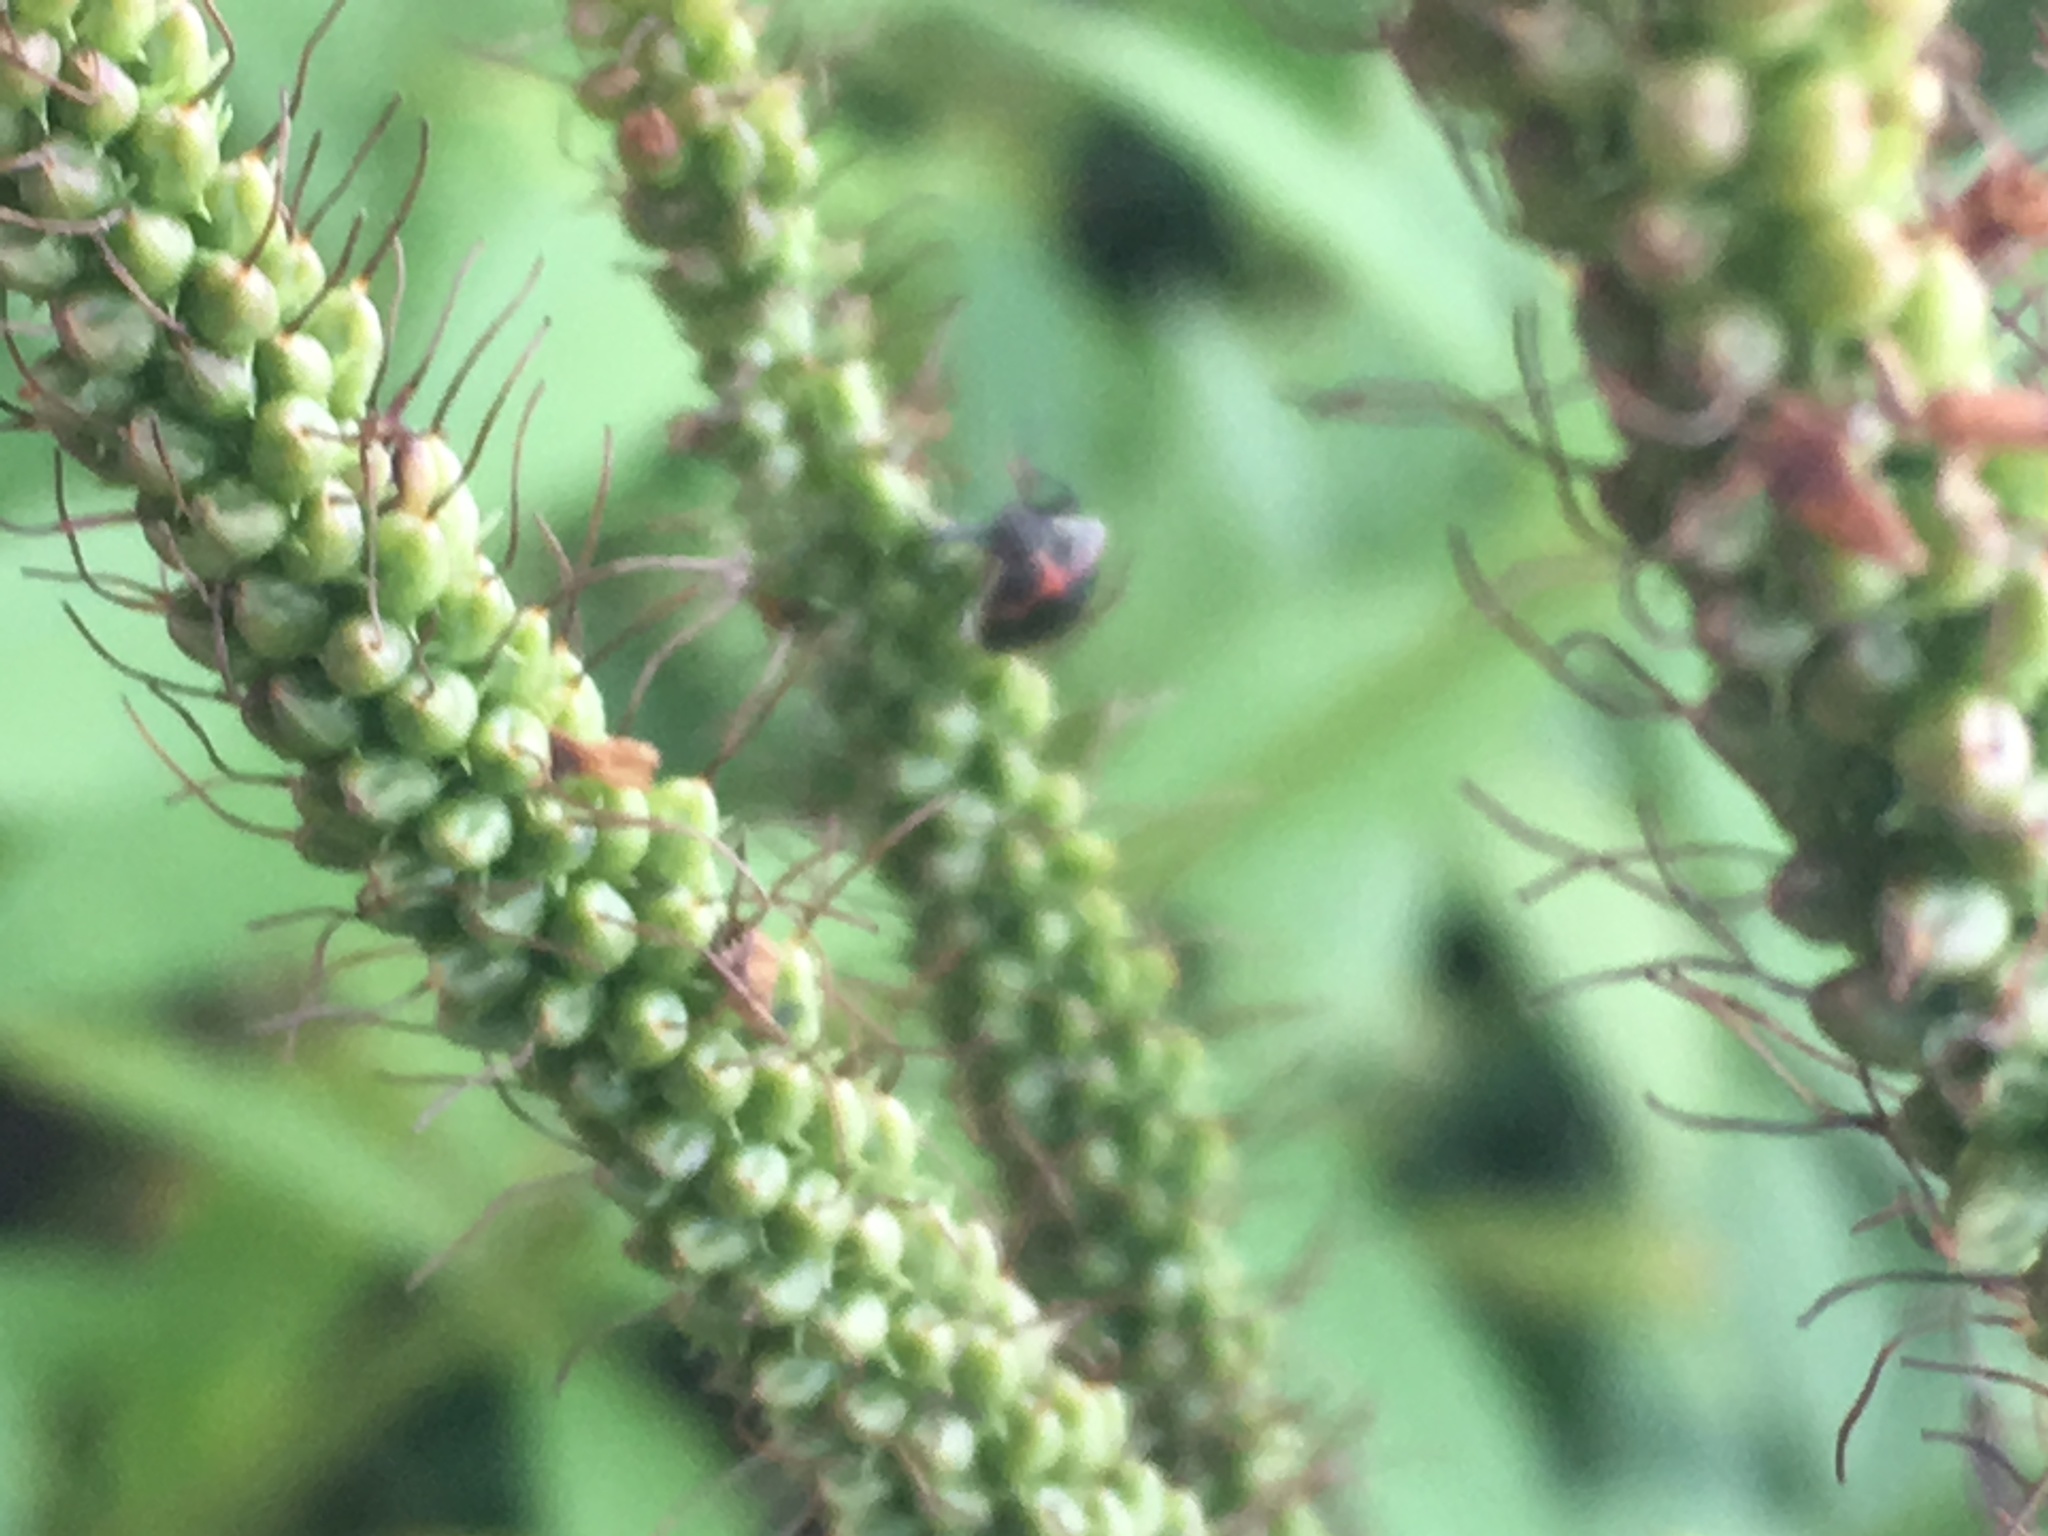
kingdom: Animalia
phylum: Arthropoda
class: Insecta
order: Hemiptera
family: Pentatomidae
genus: Cosmopepla
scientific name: Cosmopepla lintneriana
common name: Twice-stabbed stink bug
